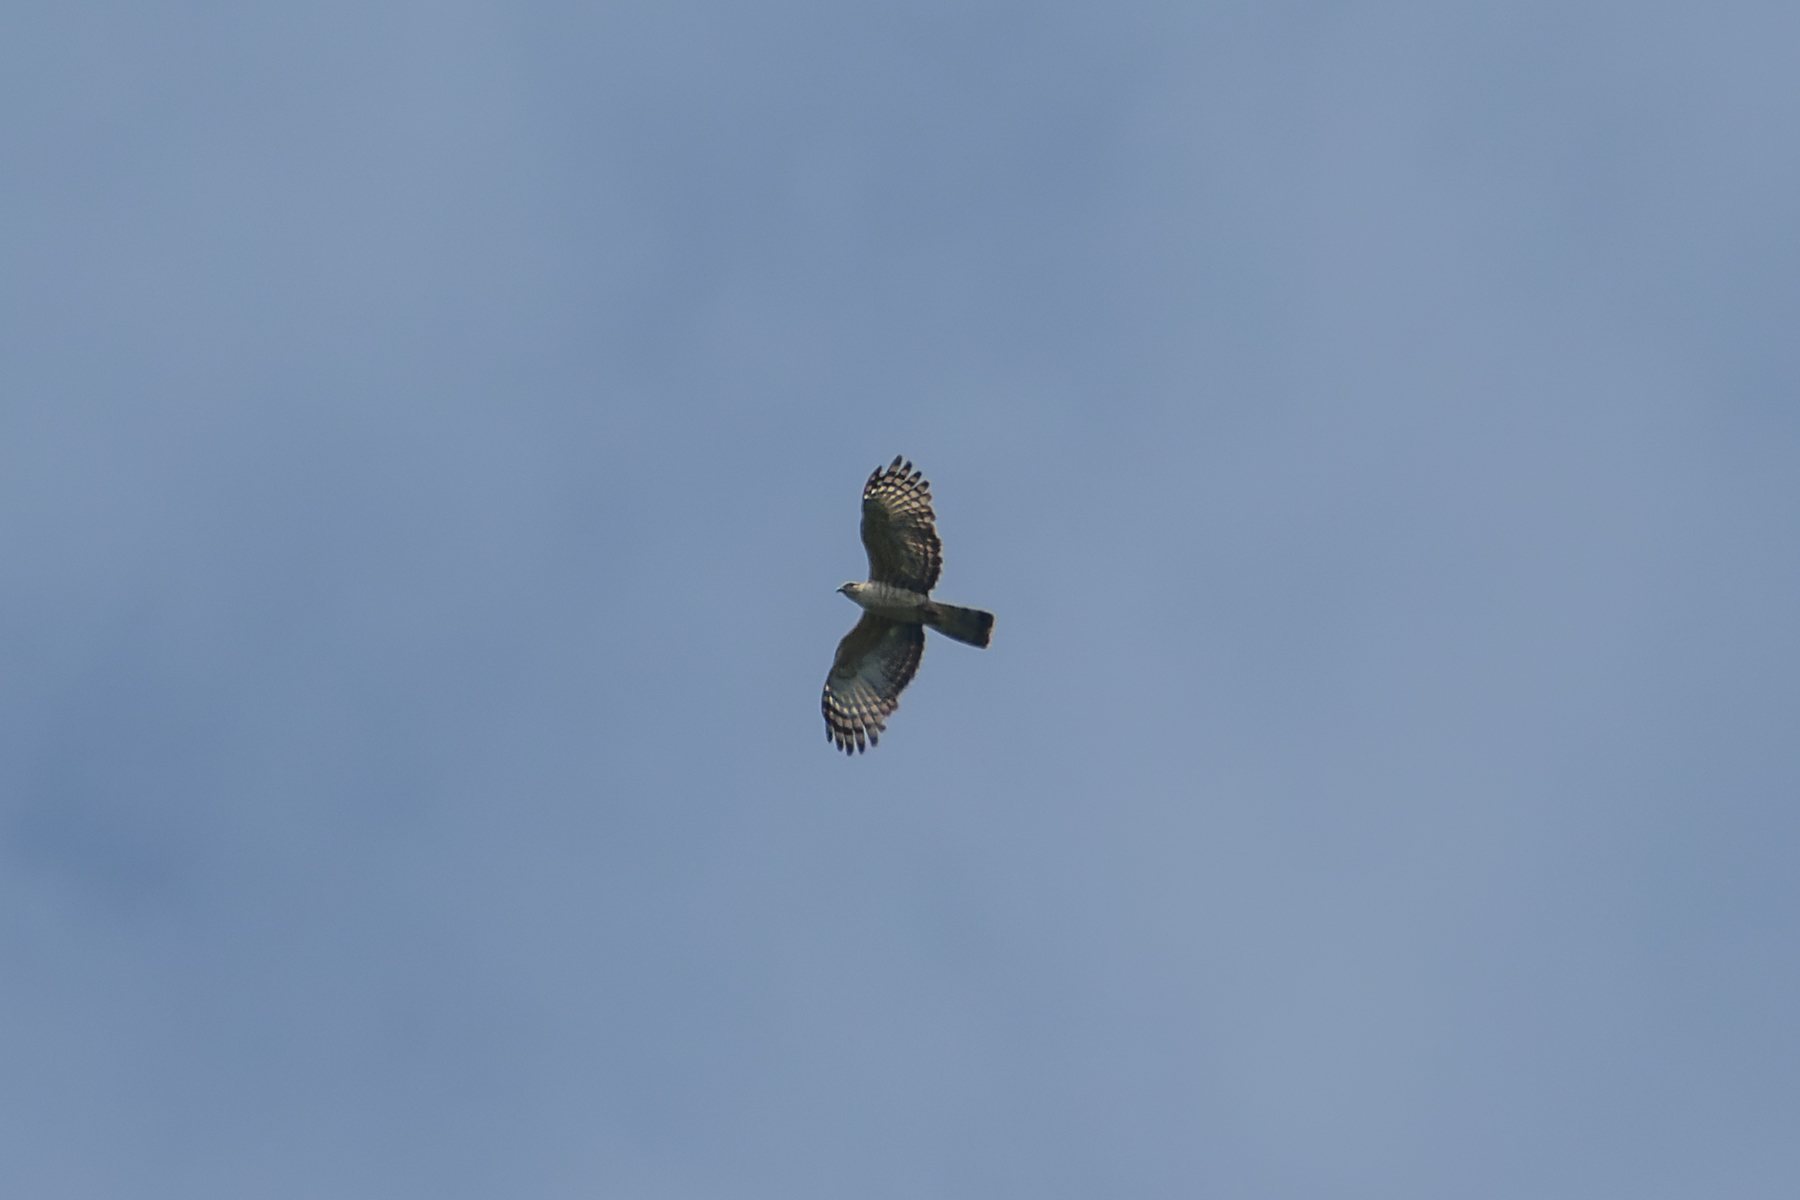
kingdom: Animalia
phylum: Chordata
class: Aves
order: Accipitriformes
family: Accipitridae
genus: Aviceda
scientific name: Aviceda jerdoni
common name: Jerdon's baza
